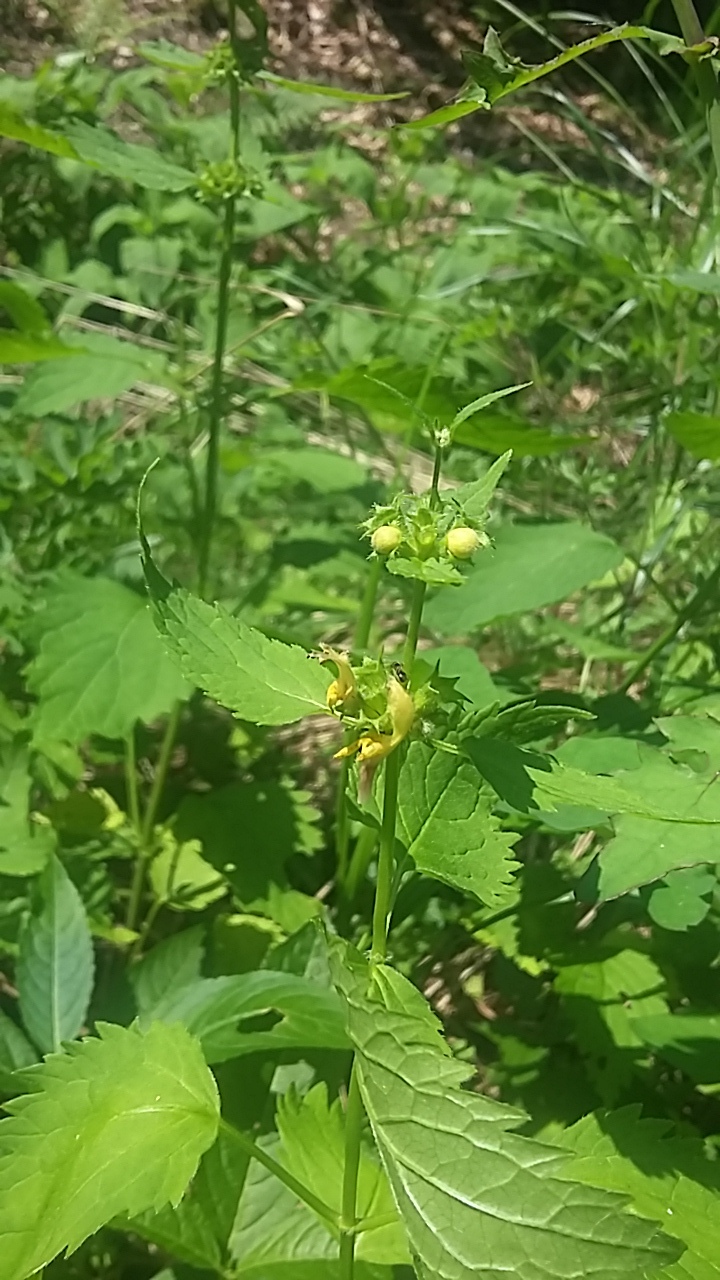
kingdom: Plantae
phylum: Tracheophyta
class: Magnoliopsida
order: Lamiales
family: Lamiaceae
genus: Lamium
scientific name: Lamium galeobdolon
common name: Yellow archangel
